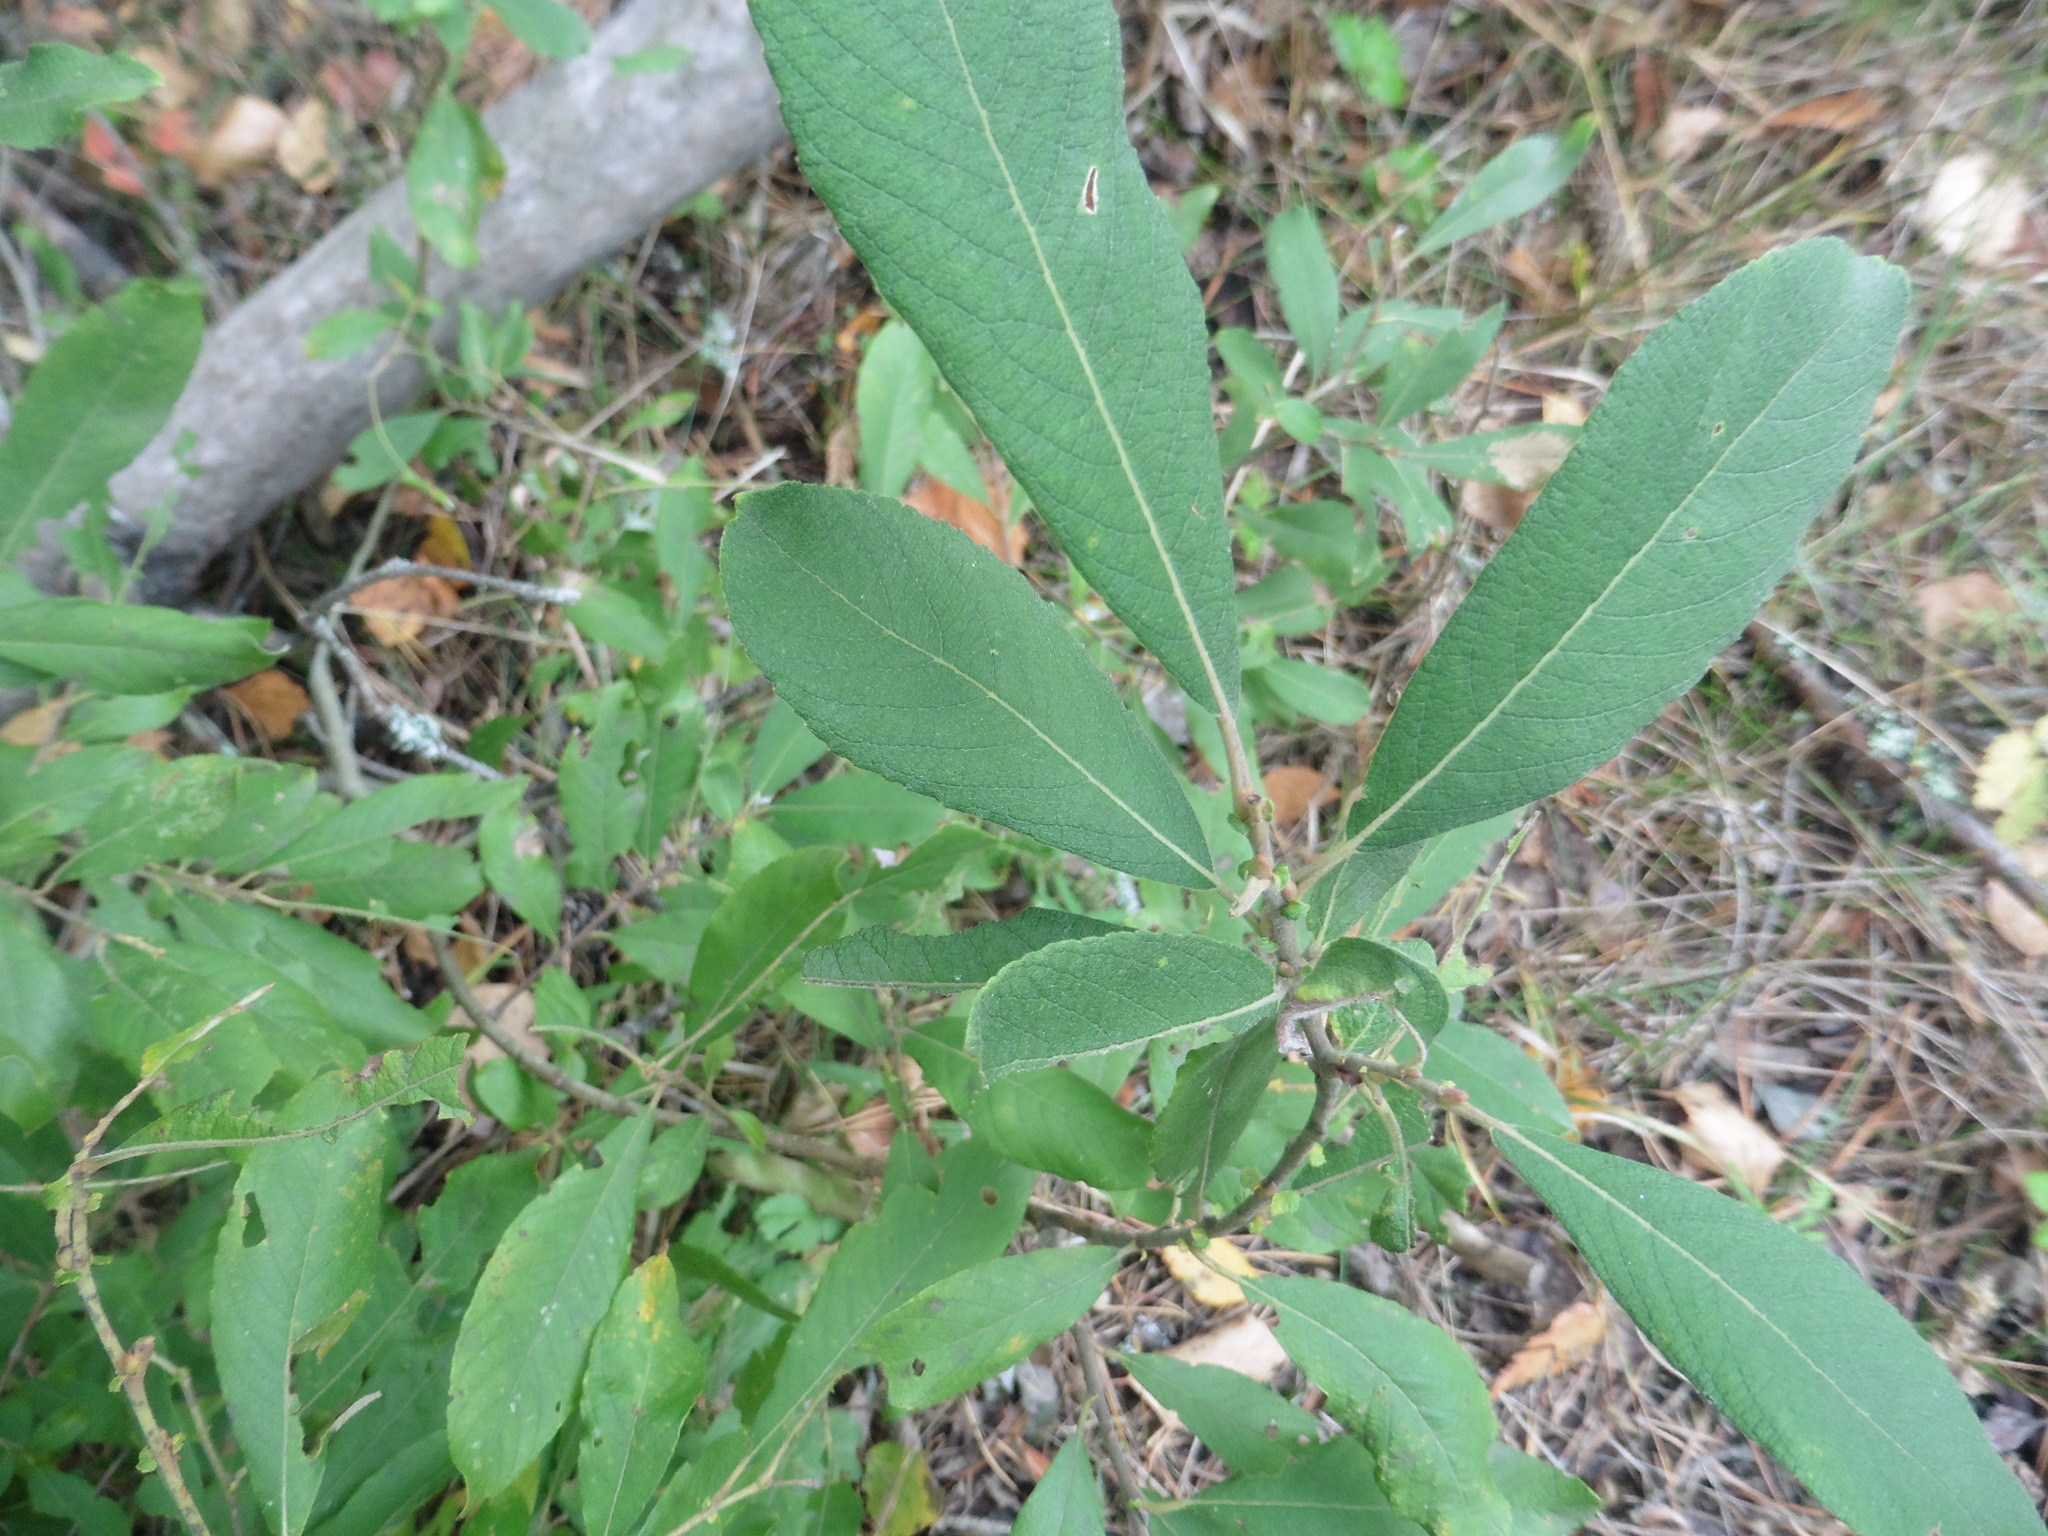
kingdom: Plantae
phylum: Tracheophyta
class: Magnoliopsida
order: Malpighiales
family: Salicaceae
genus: Salix
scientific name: Salix cinerea
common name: Common sallow
